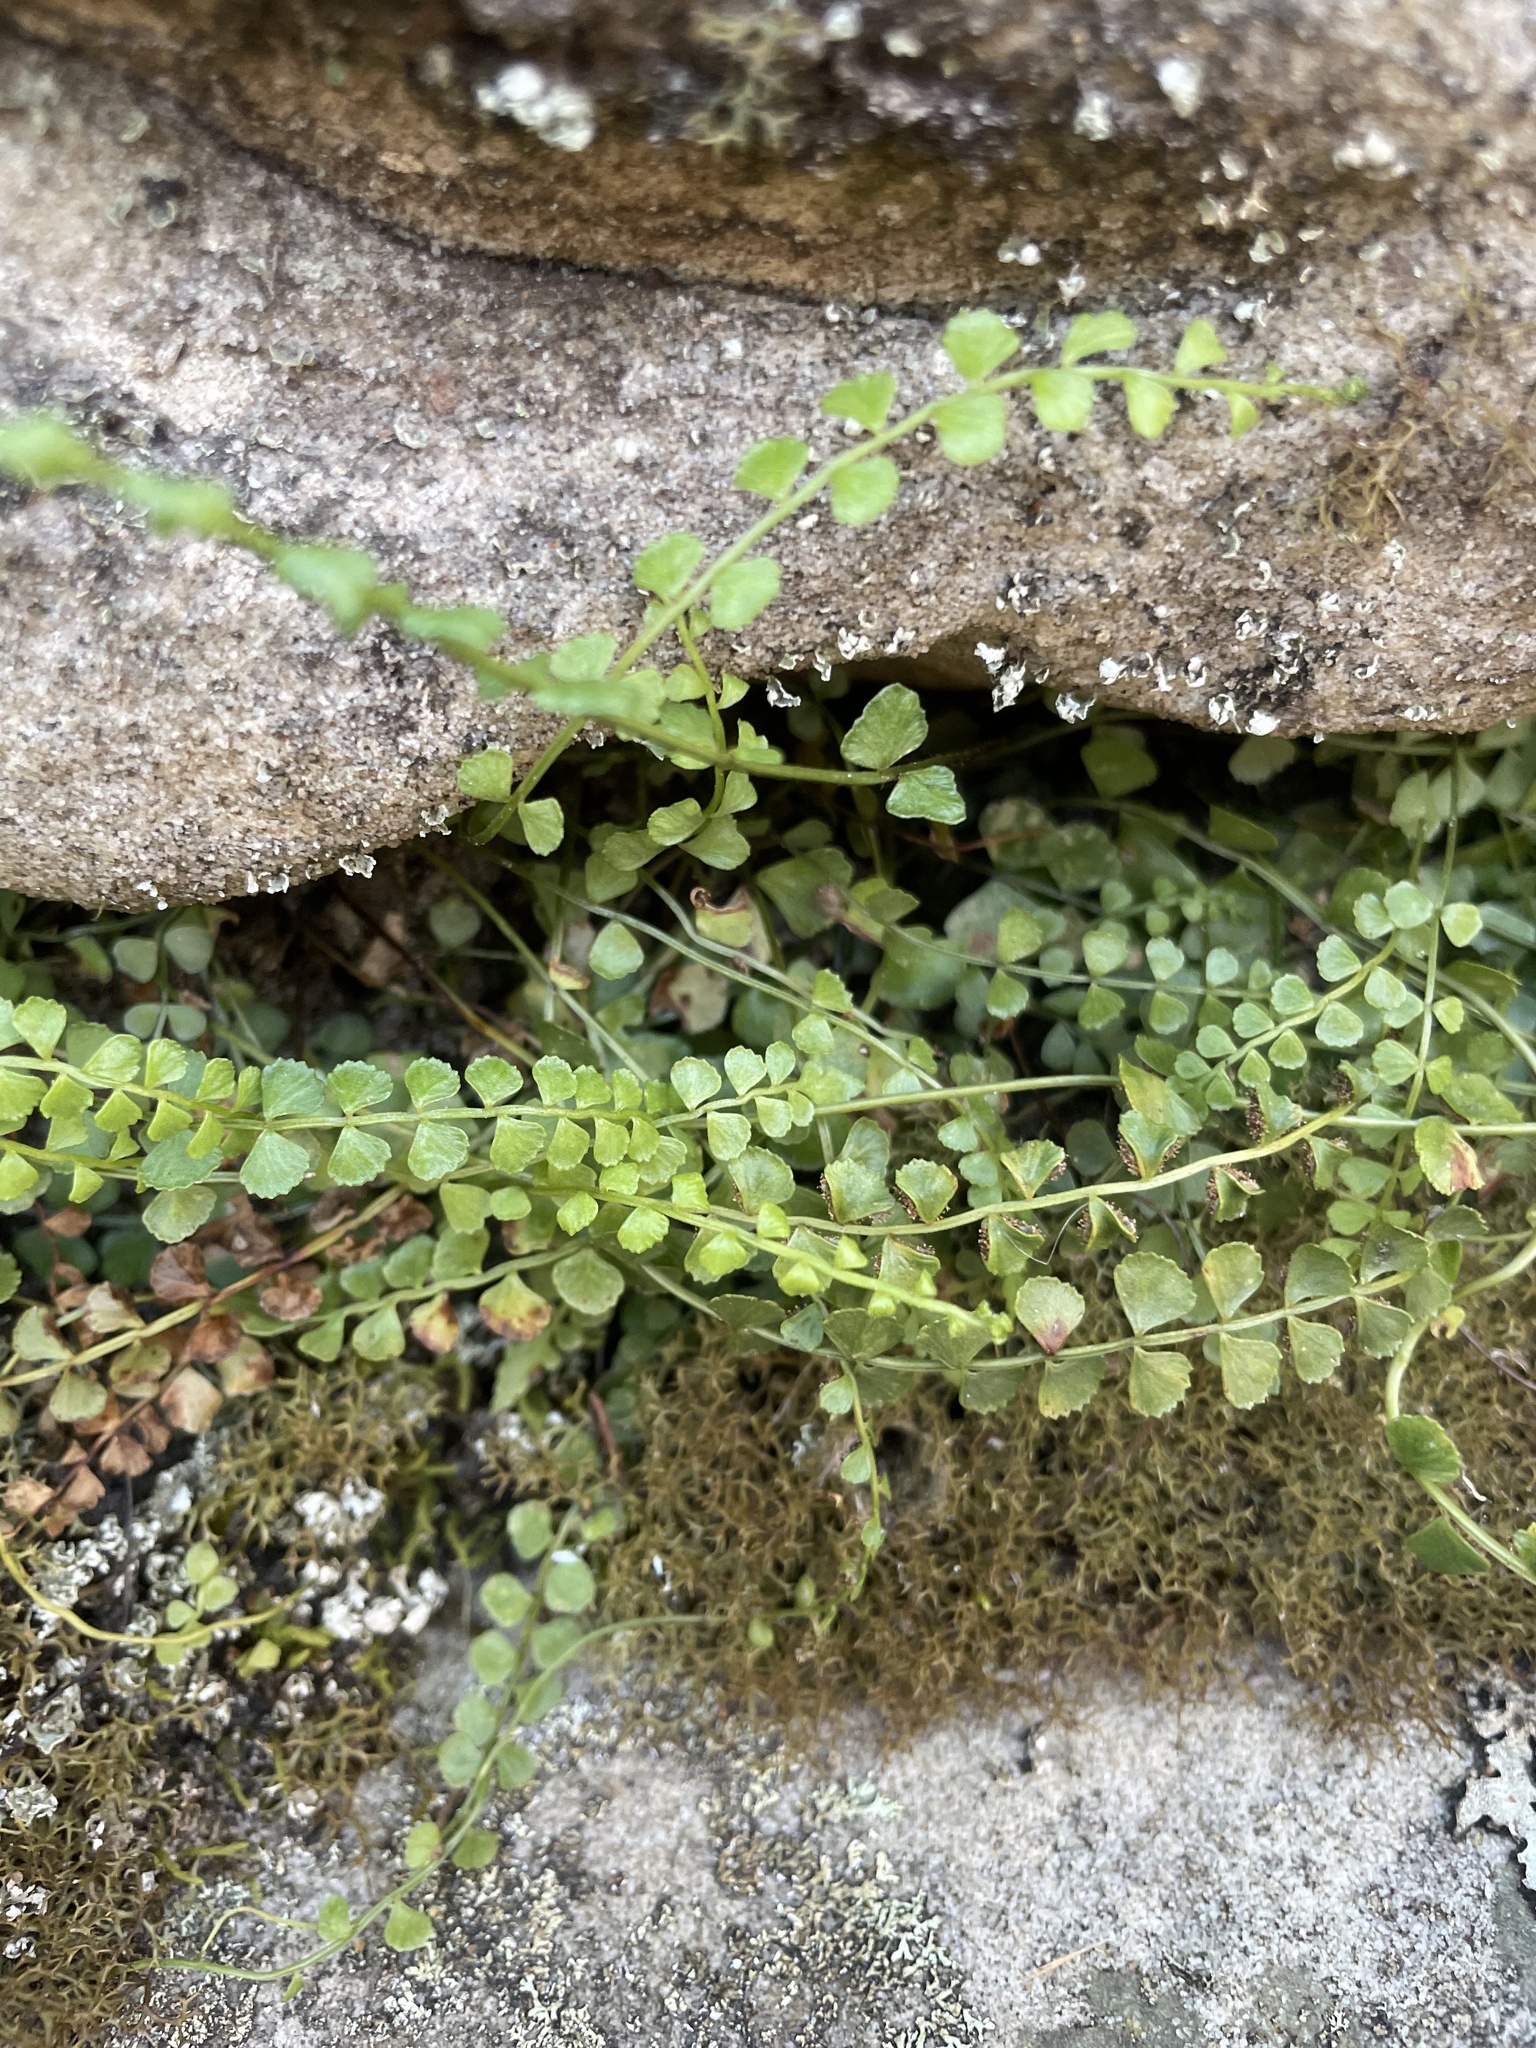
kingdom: Plantae
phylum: Tracheophyta
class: Polypodiopsida
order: Polypodiales
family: Aspleniaceae
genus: Asplenium
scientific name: Asplenium flabellifolium
